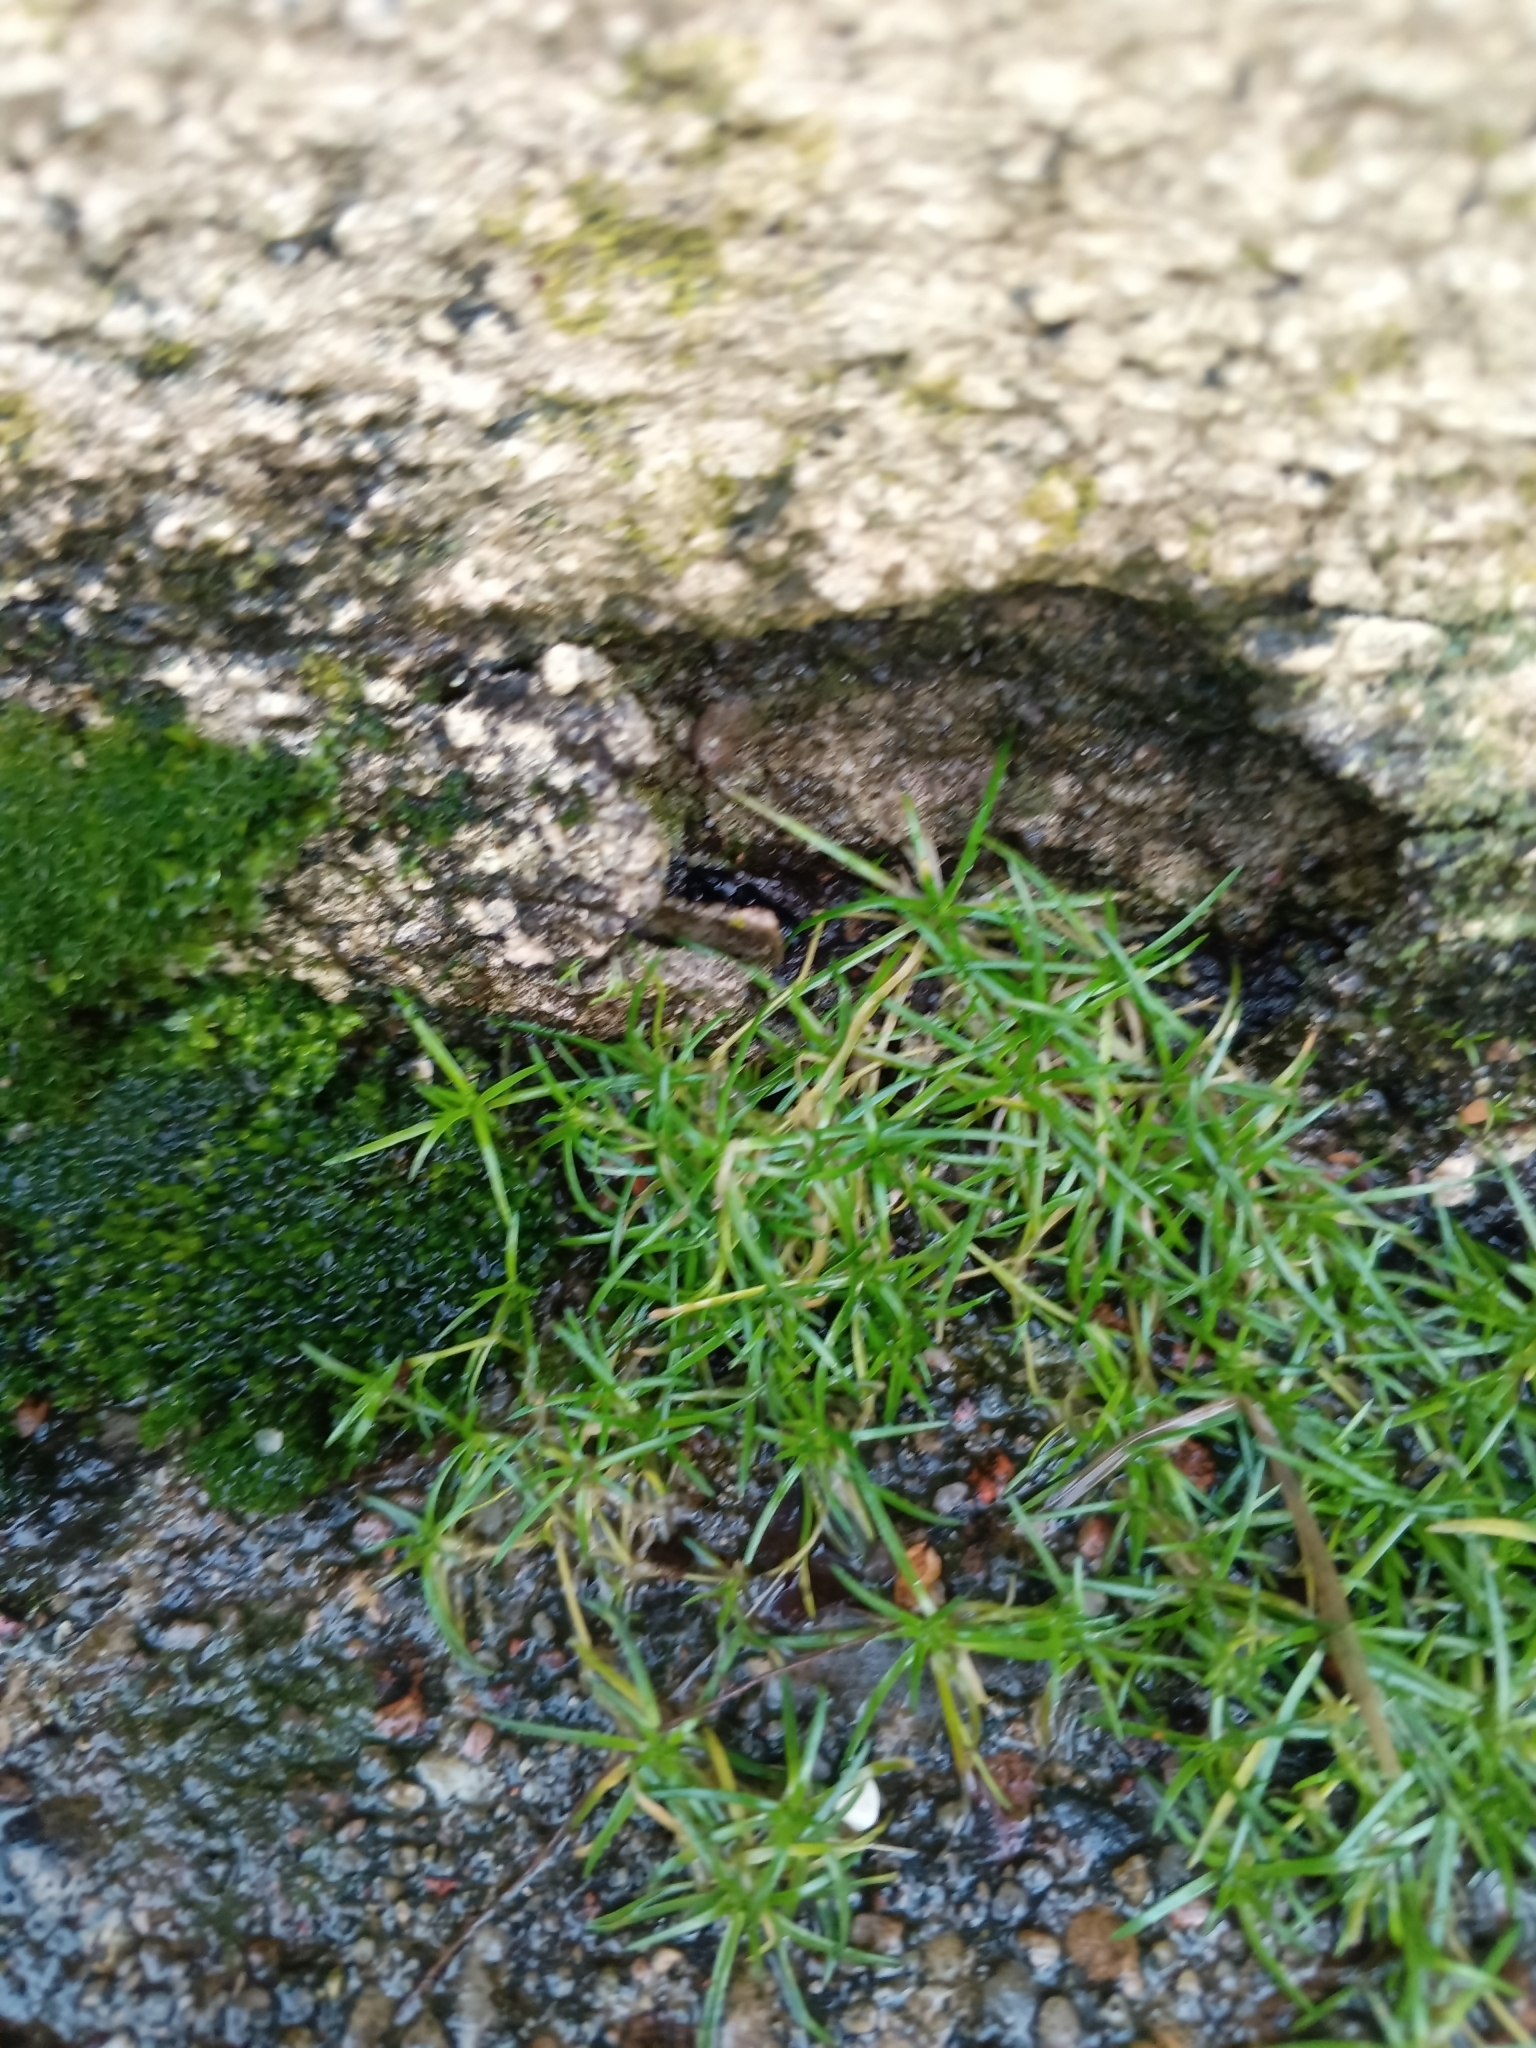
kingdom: Plantae
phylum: Tracheophyta
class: Magnoliopsida
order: Caryophyllales
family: Caryophyllaceae
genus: Sagina
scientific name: Sagina procumbens
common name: Procumbent pearlwort
